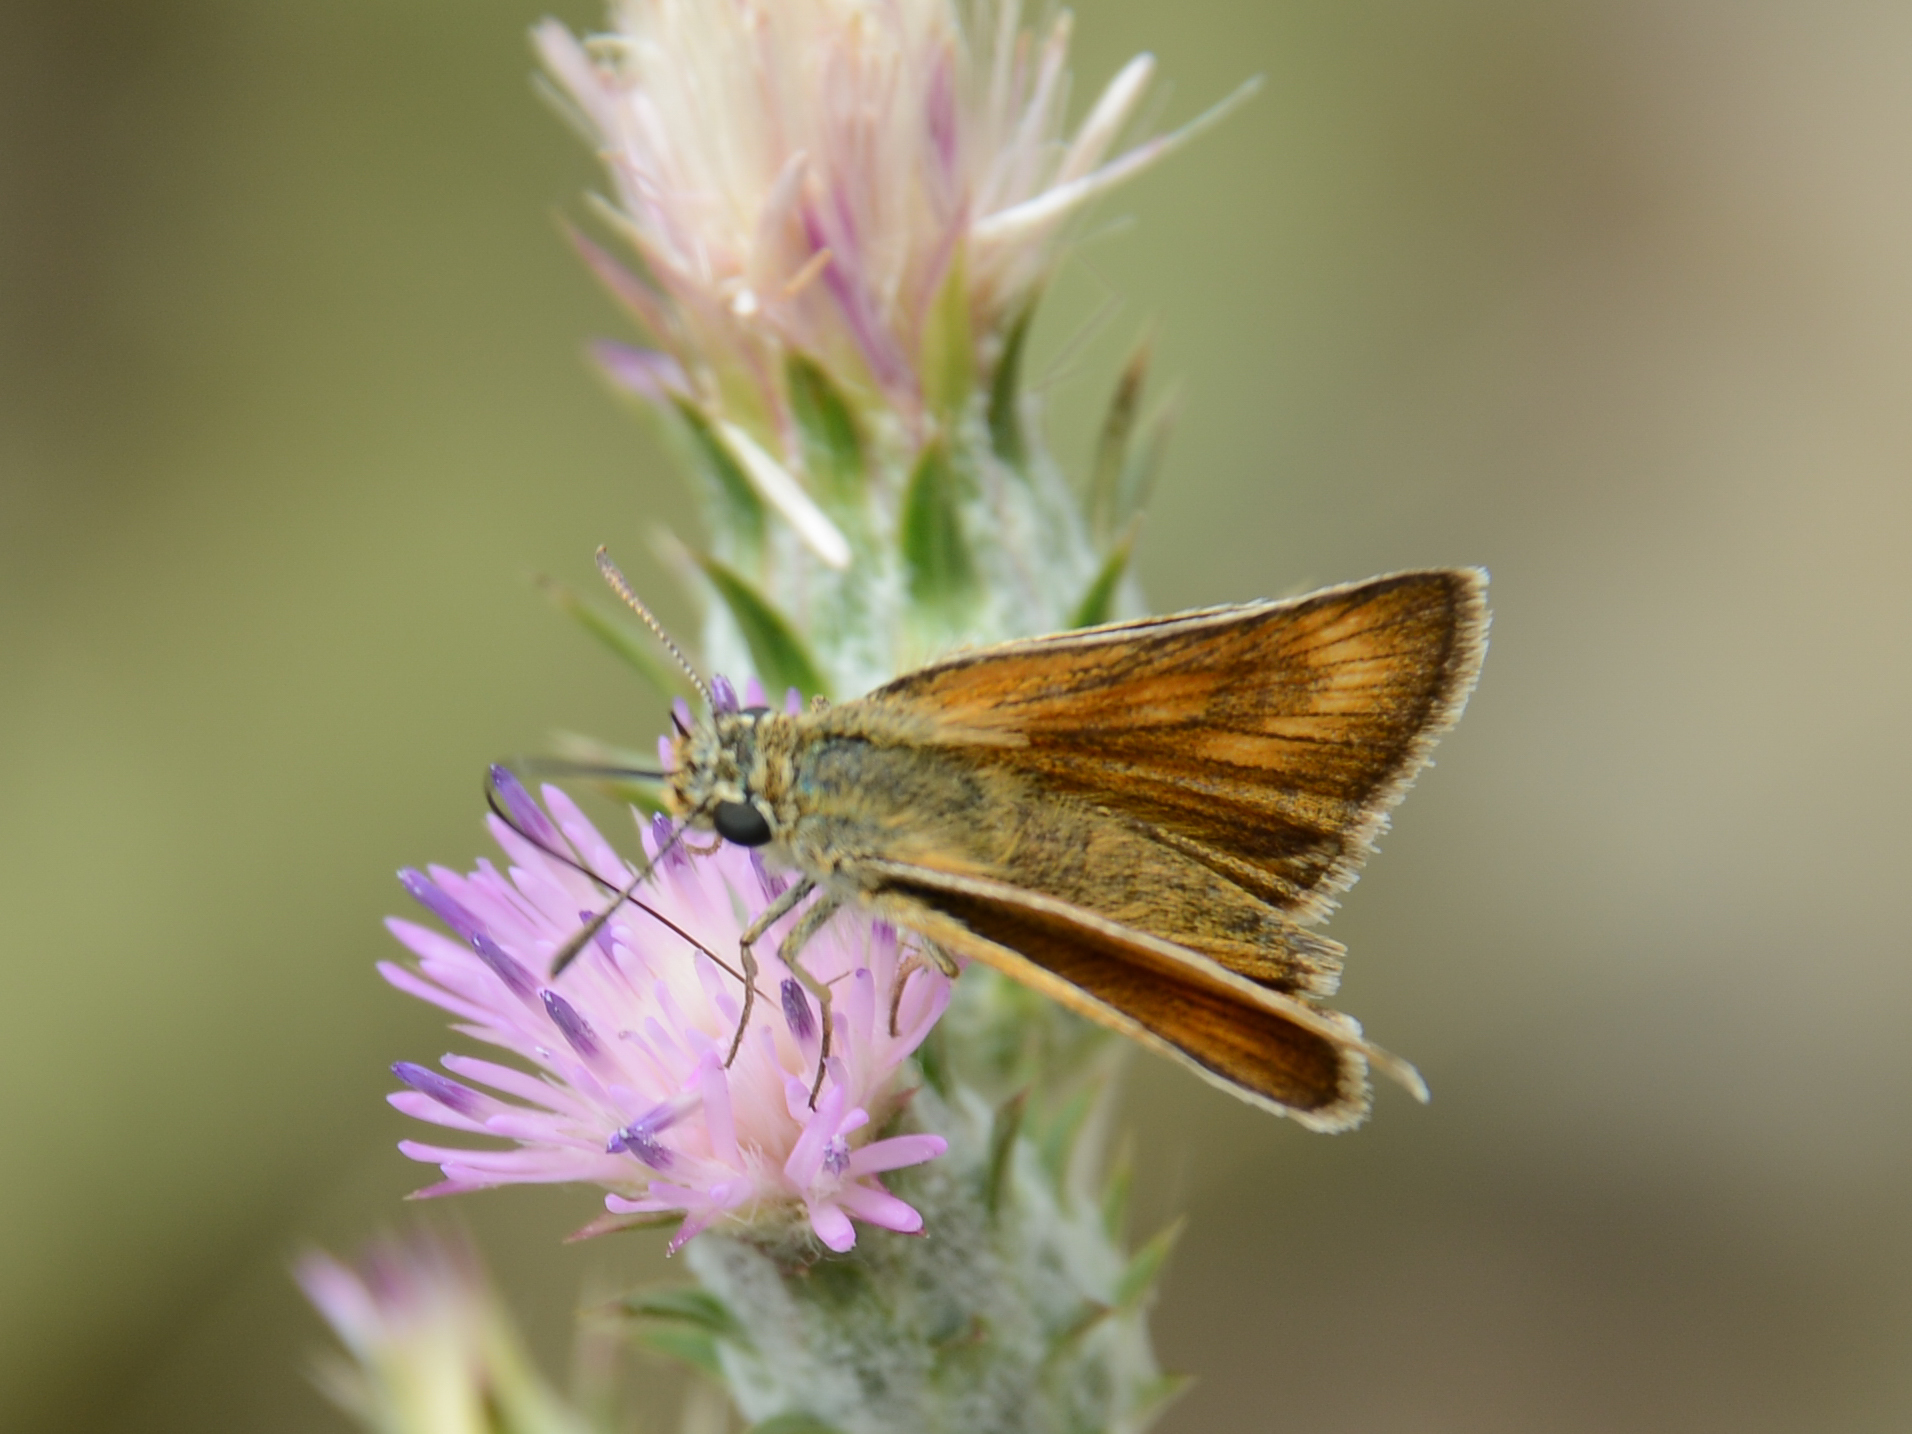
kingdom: Animalia
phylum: Arthropoda
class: Insecta
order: Lepidoptera
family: Hesperiidae
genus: Thymelicus
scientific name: Thymelicus acteon
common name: Lulworth skipper
